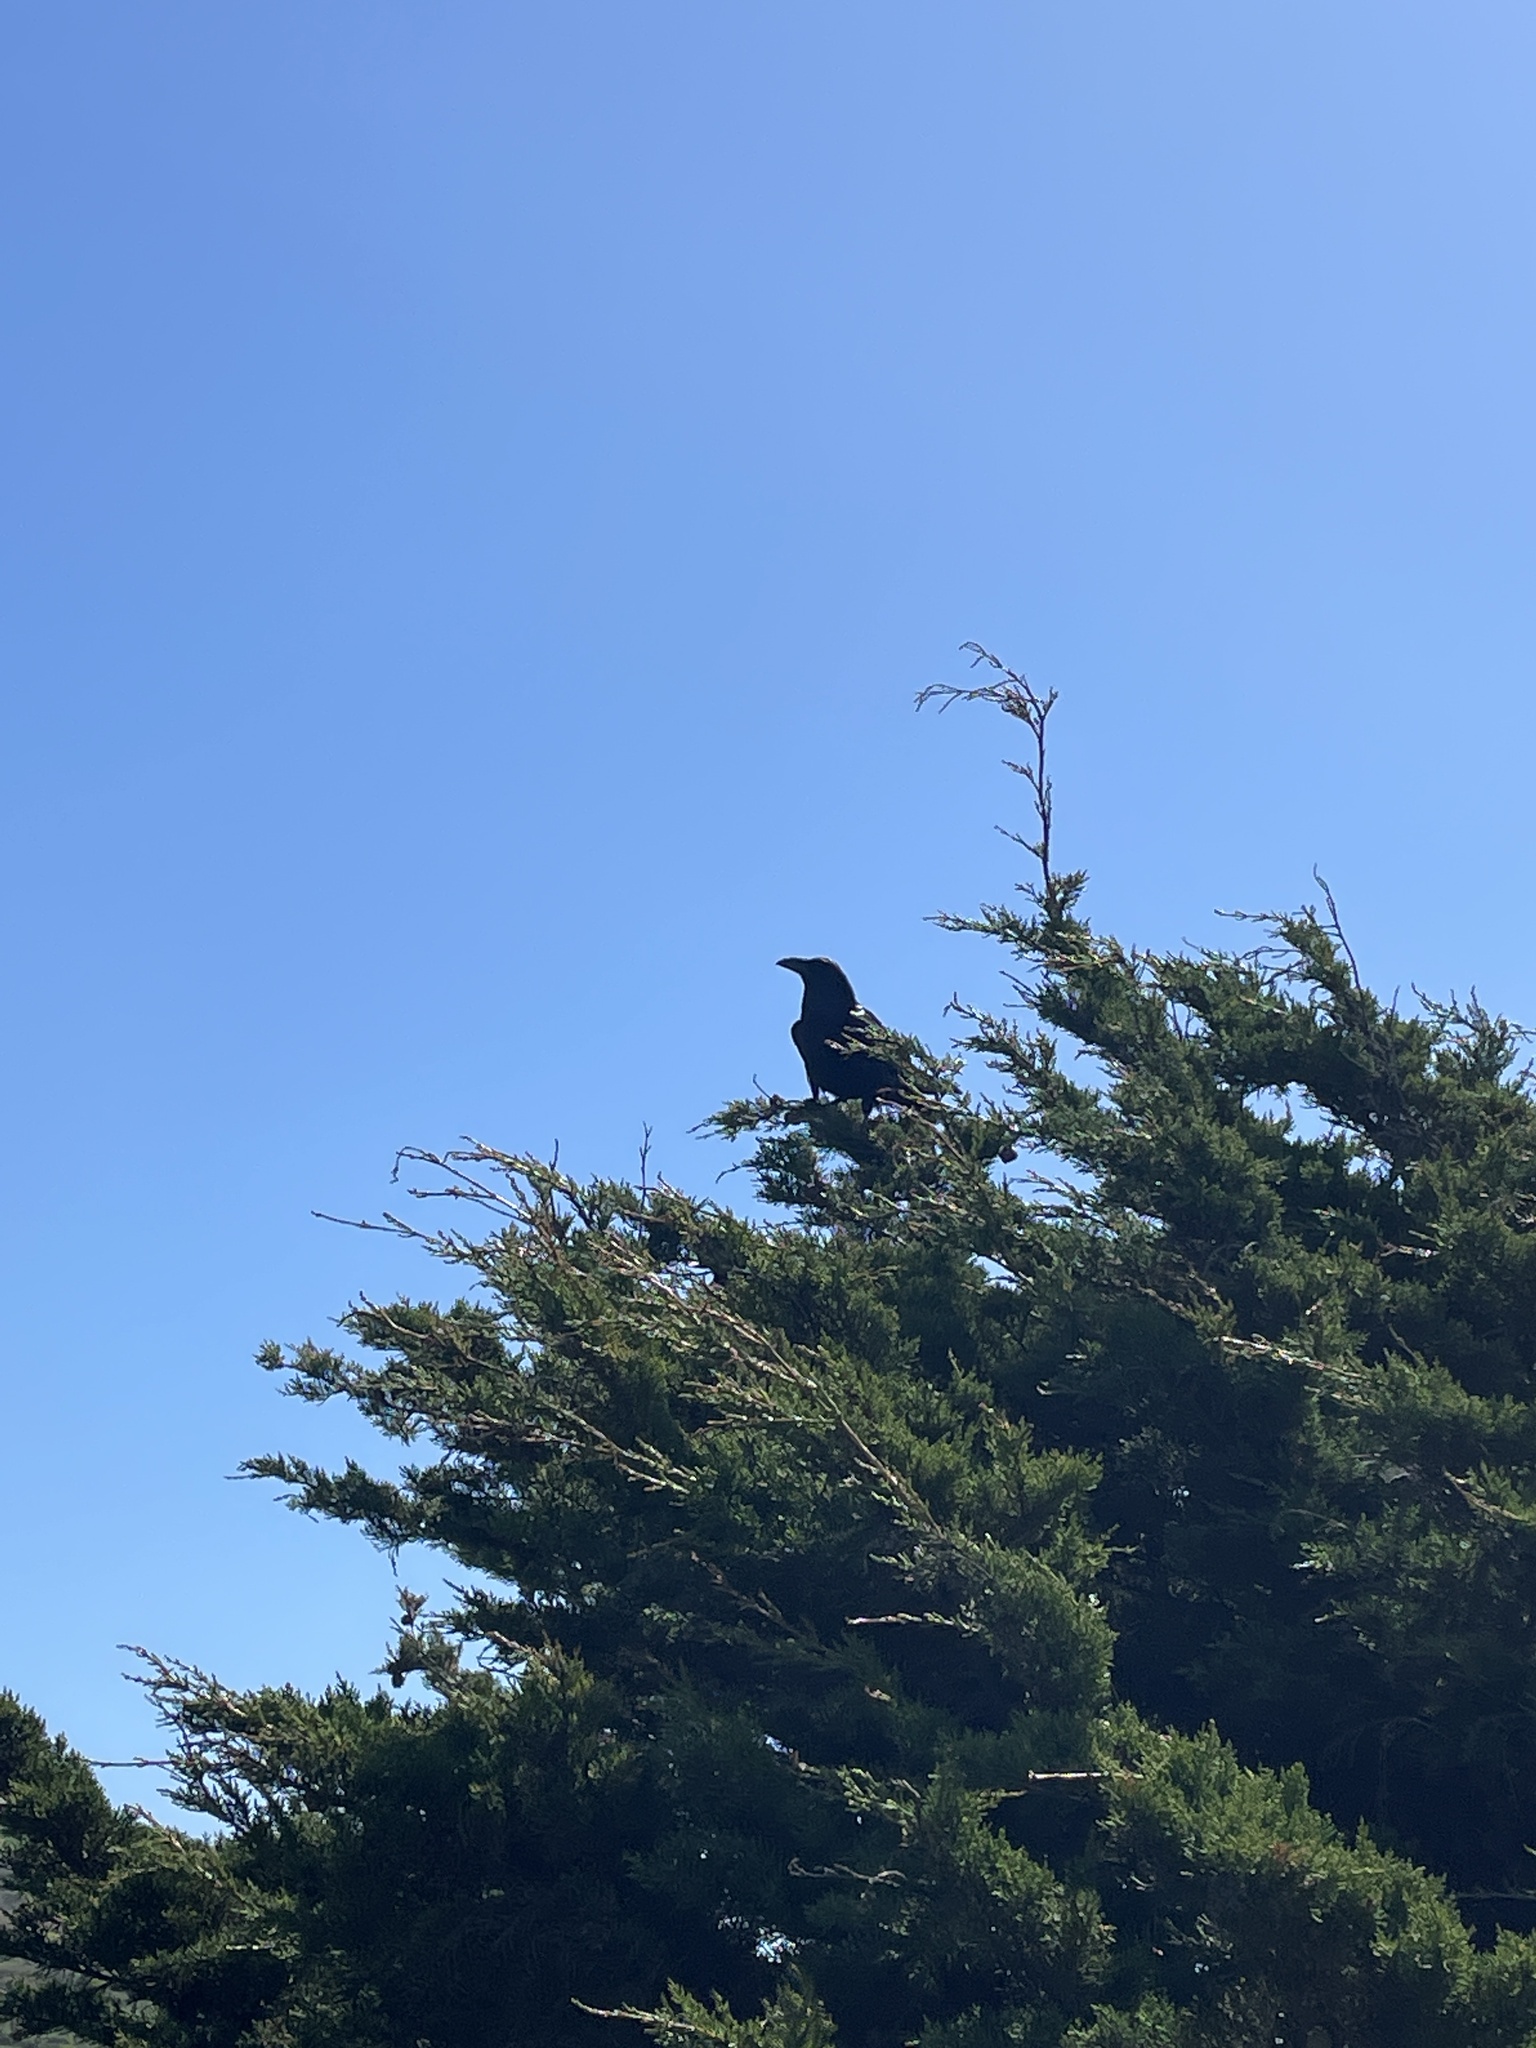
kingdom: Animalia
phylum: Chordata
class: Aves
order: Passeriformes
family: Corvidae
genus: Corvus
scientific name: Corvus corax
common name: Common raven
